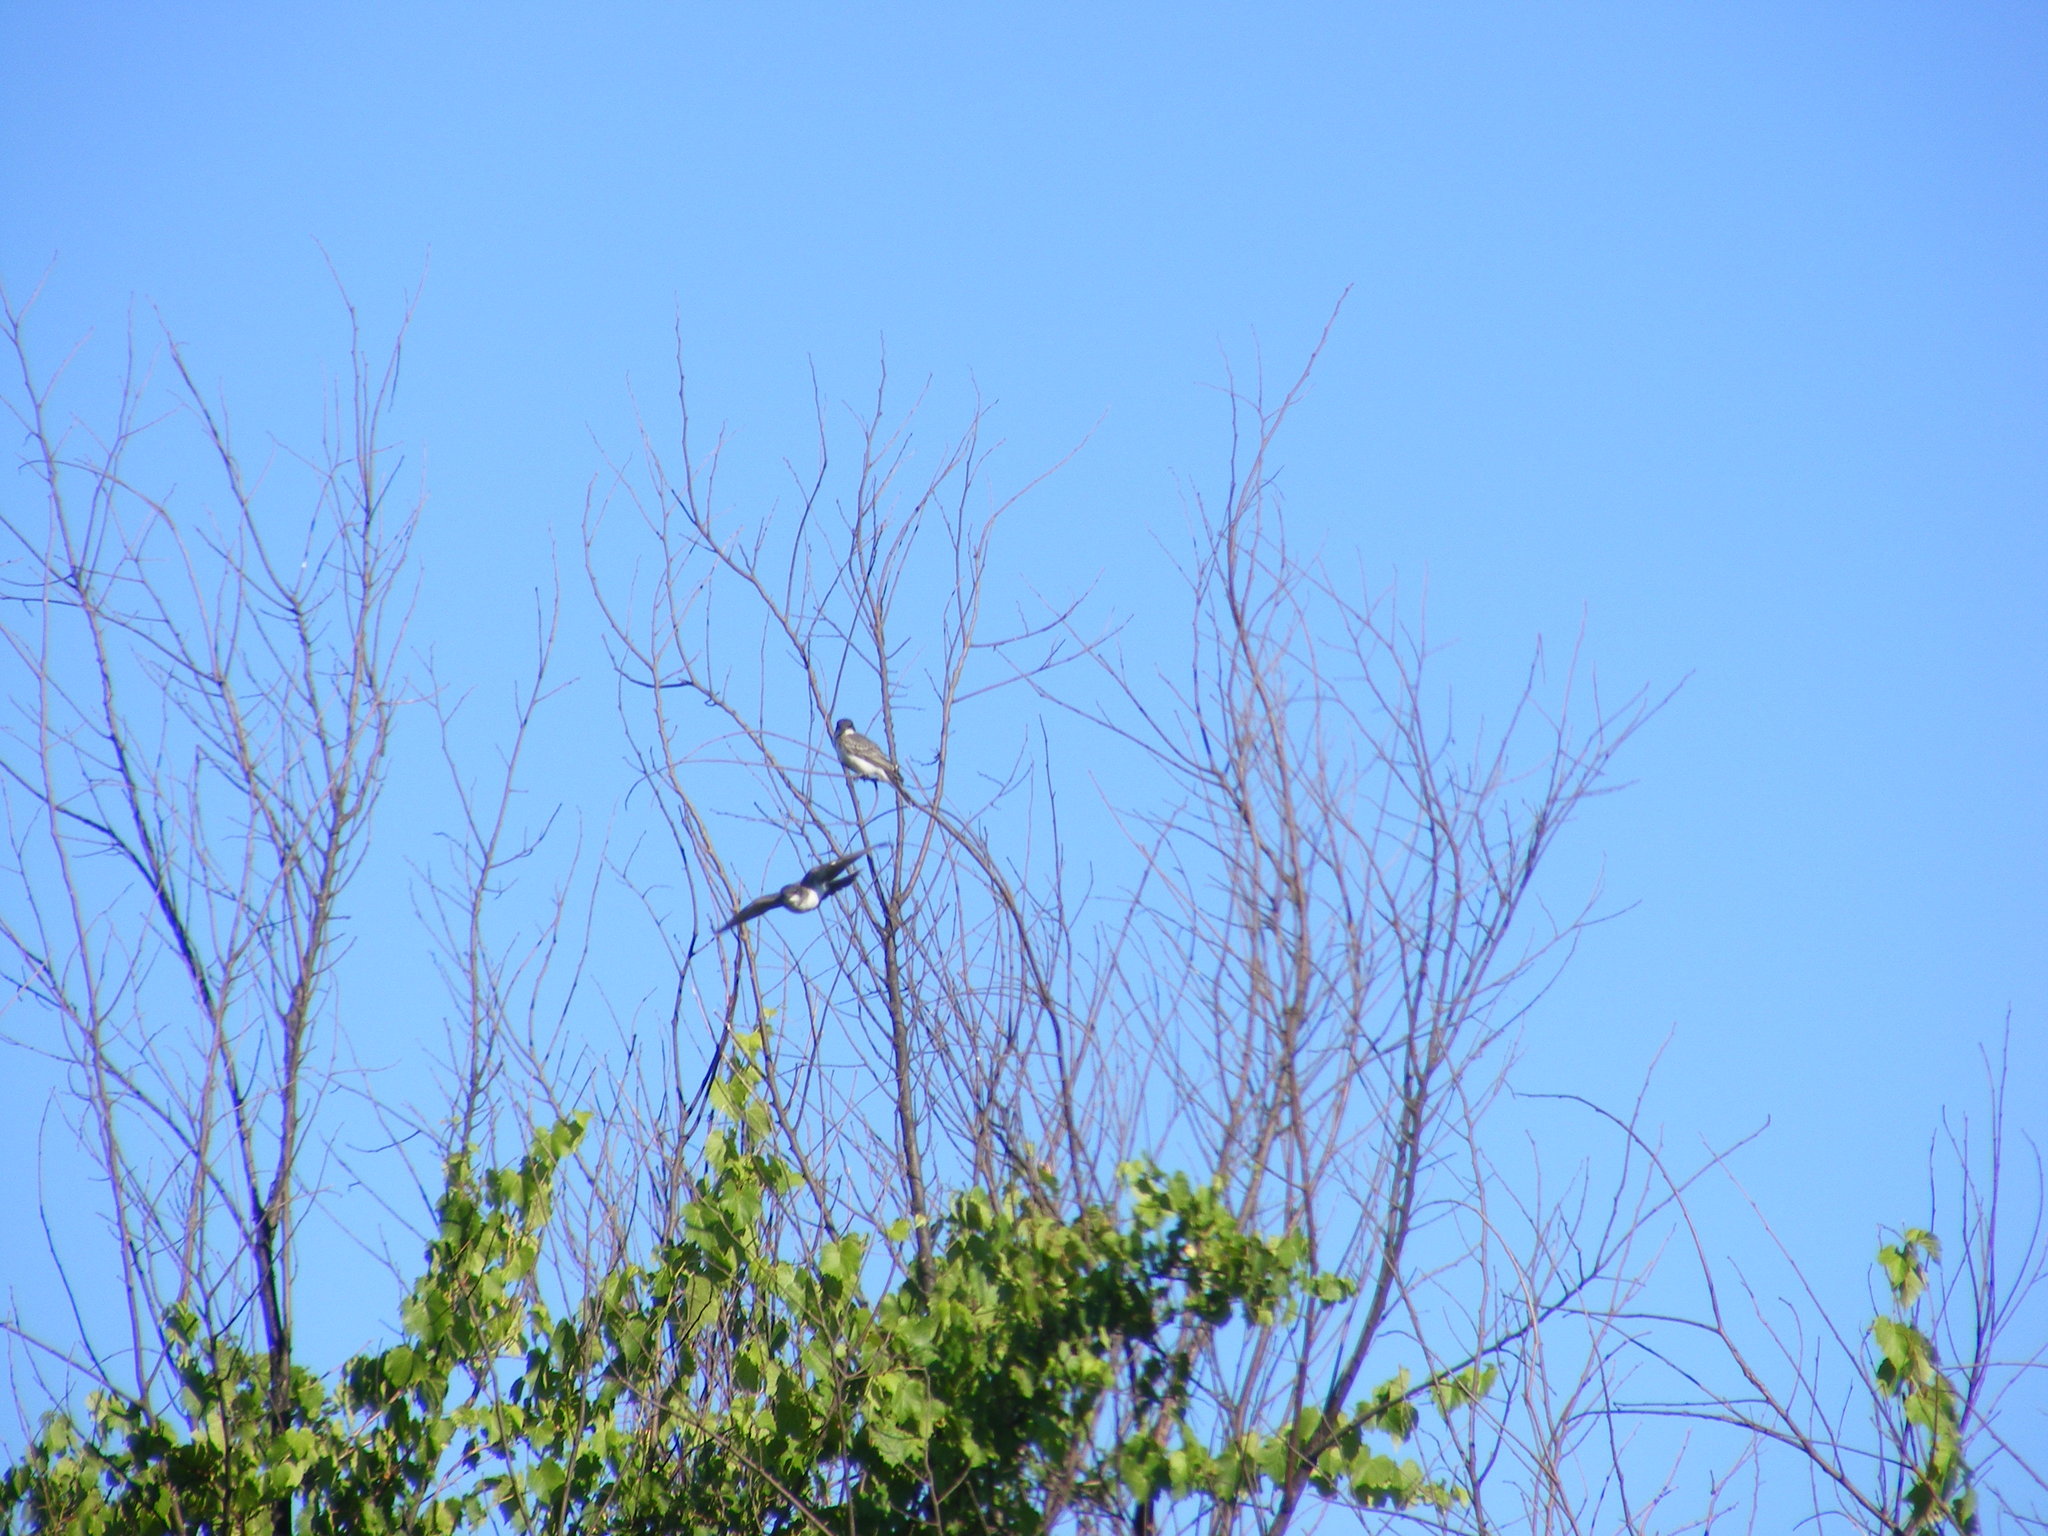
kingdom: Animalia
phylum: Chordata
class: Aves
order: Passeriformes
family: Tyrannidae
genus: Tyrannus
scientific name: Tyrannus tyrannus
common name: Eastern kingbird
